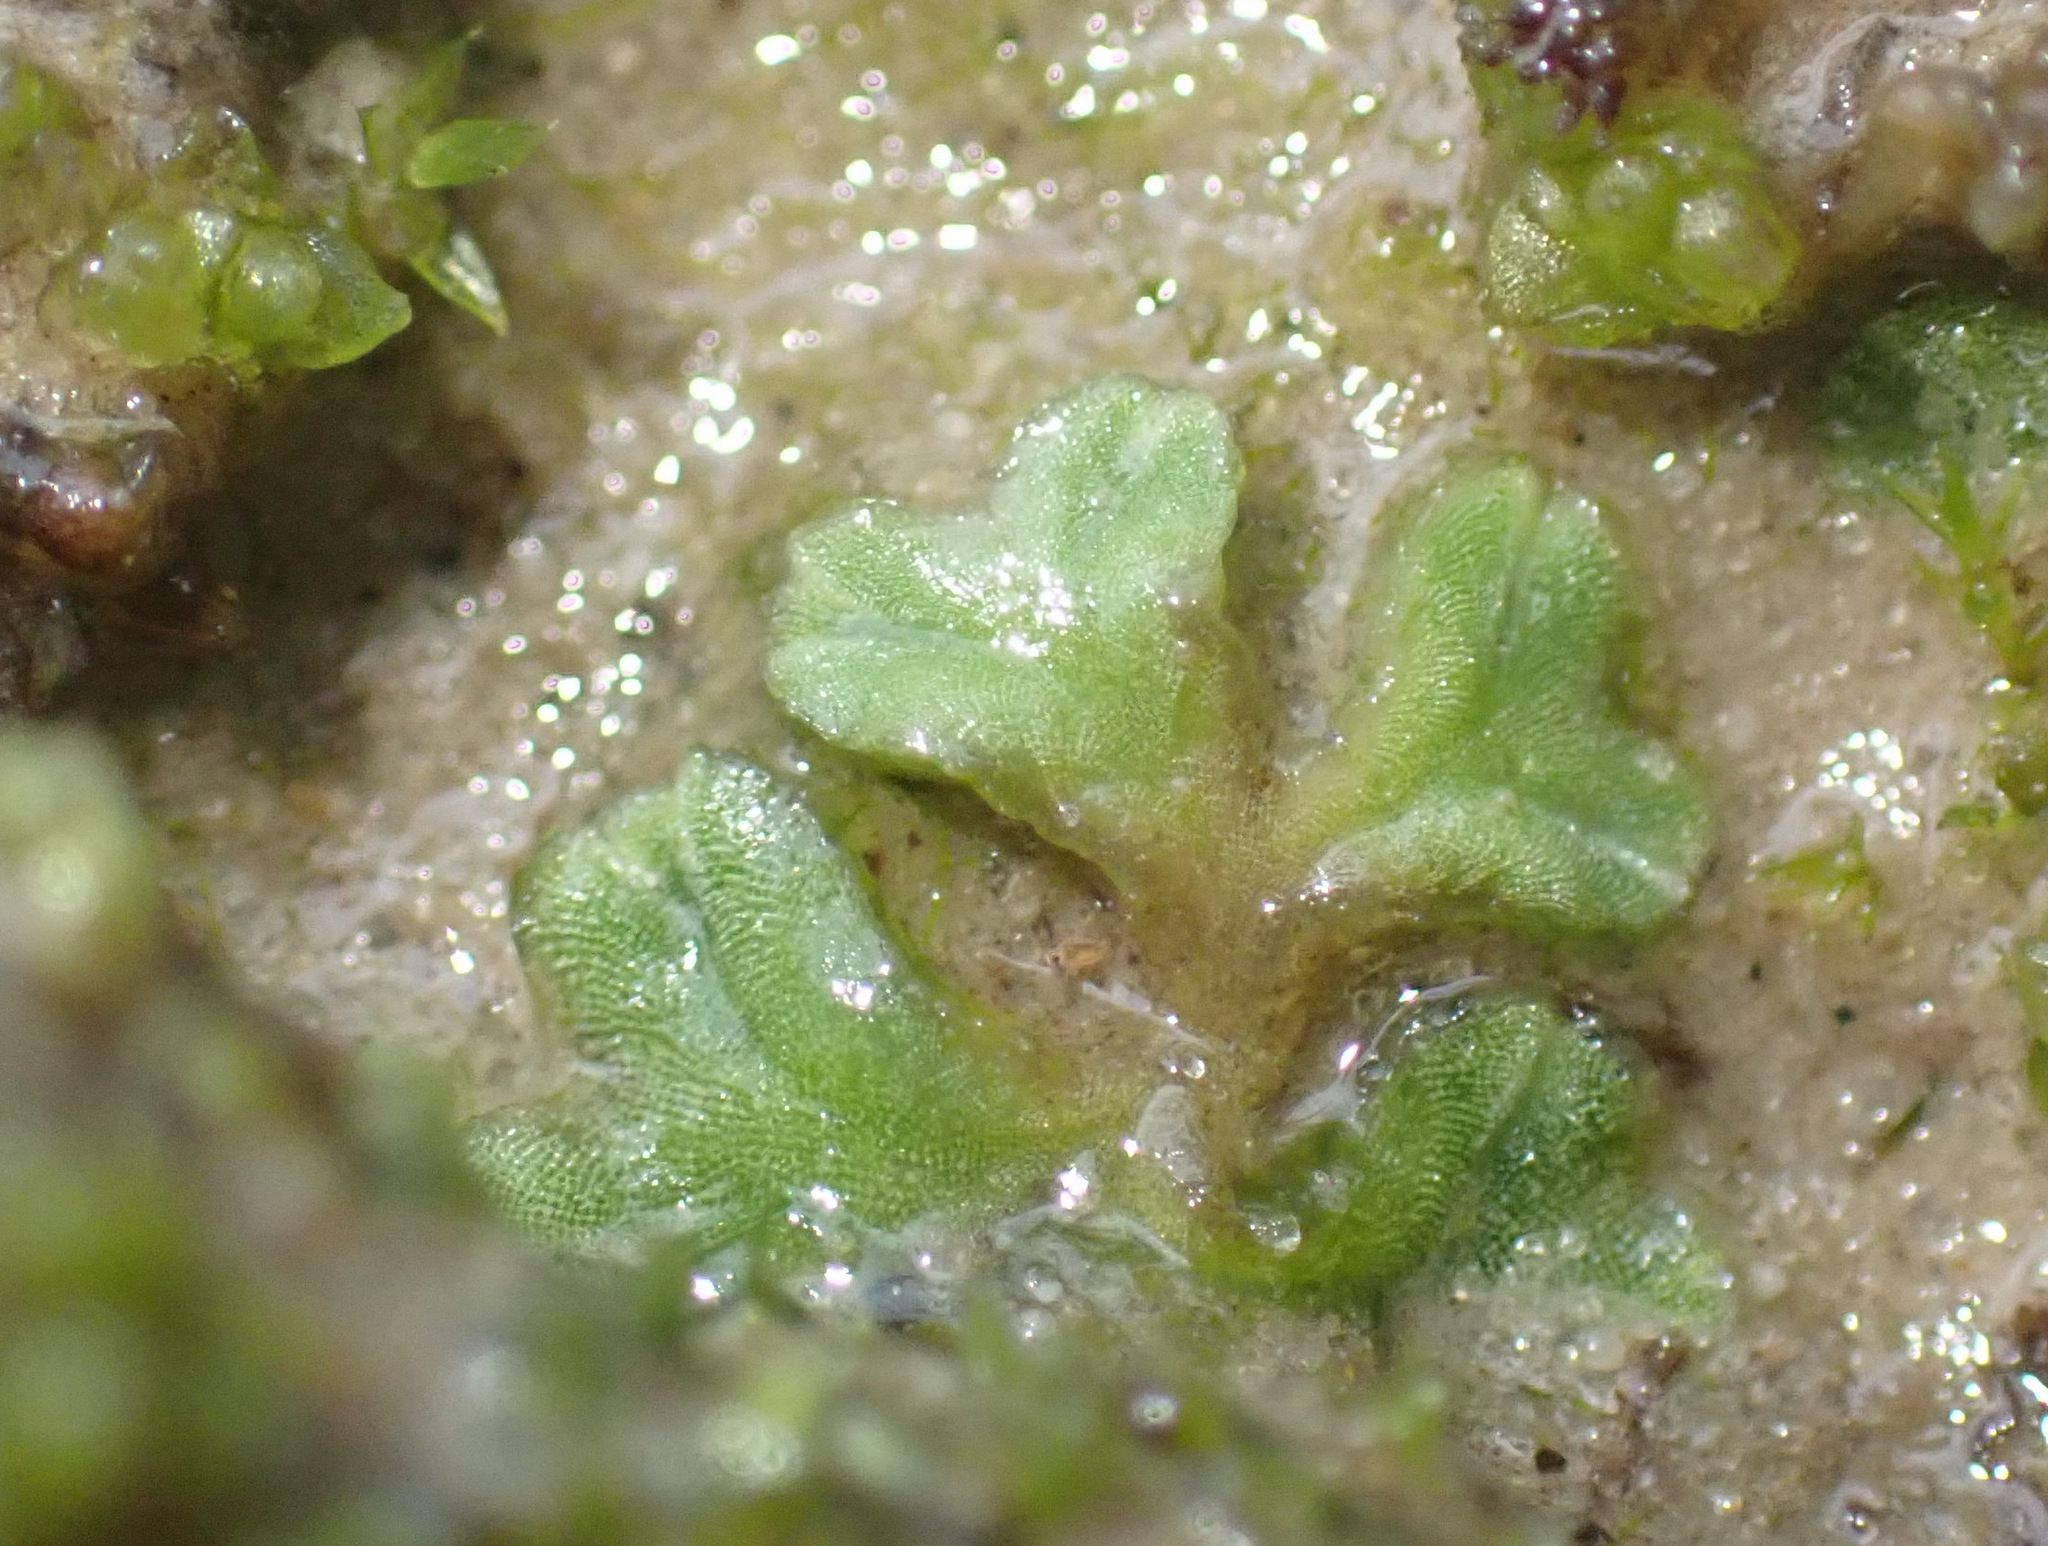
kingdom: Plantae
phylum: Marchantiophyta
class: Marchantiopsida
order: Marchantiales
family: Ricciaceae
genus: Riccia
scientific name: Riccia sorocarpa
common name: Common crystalwort
